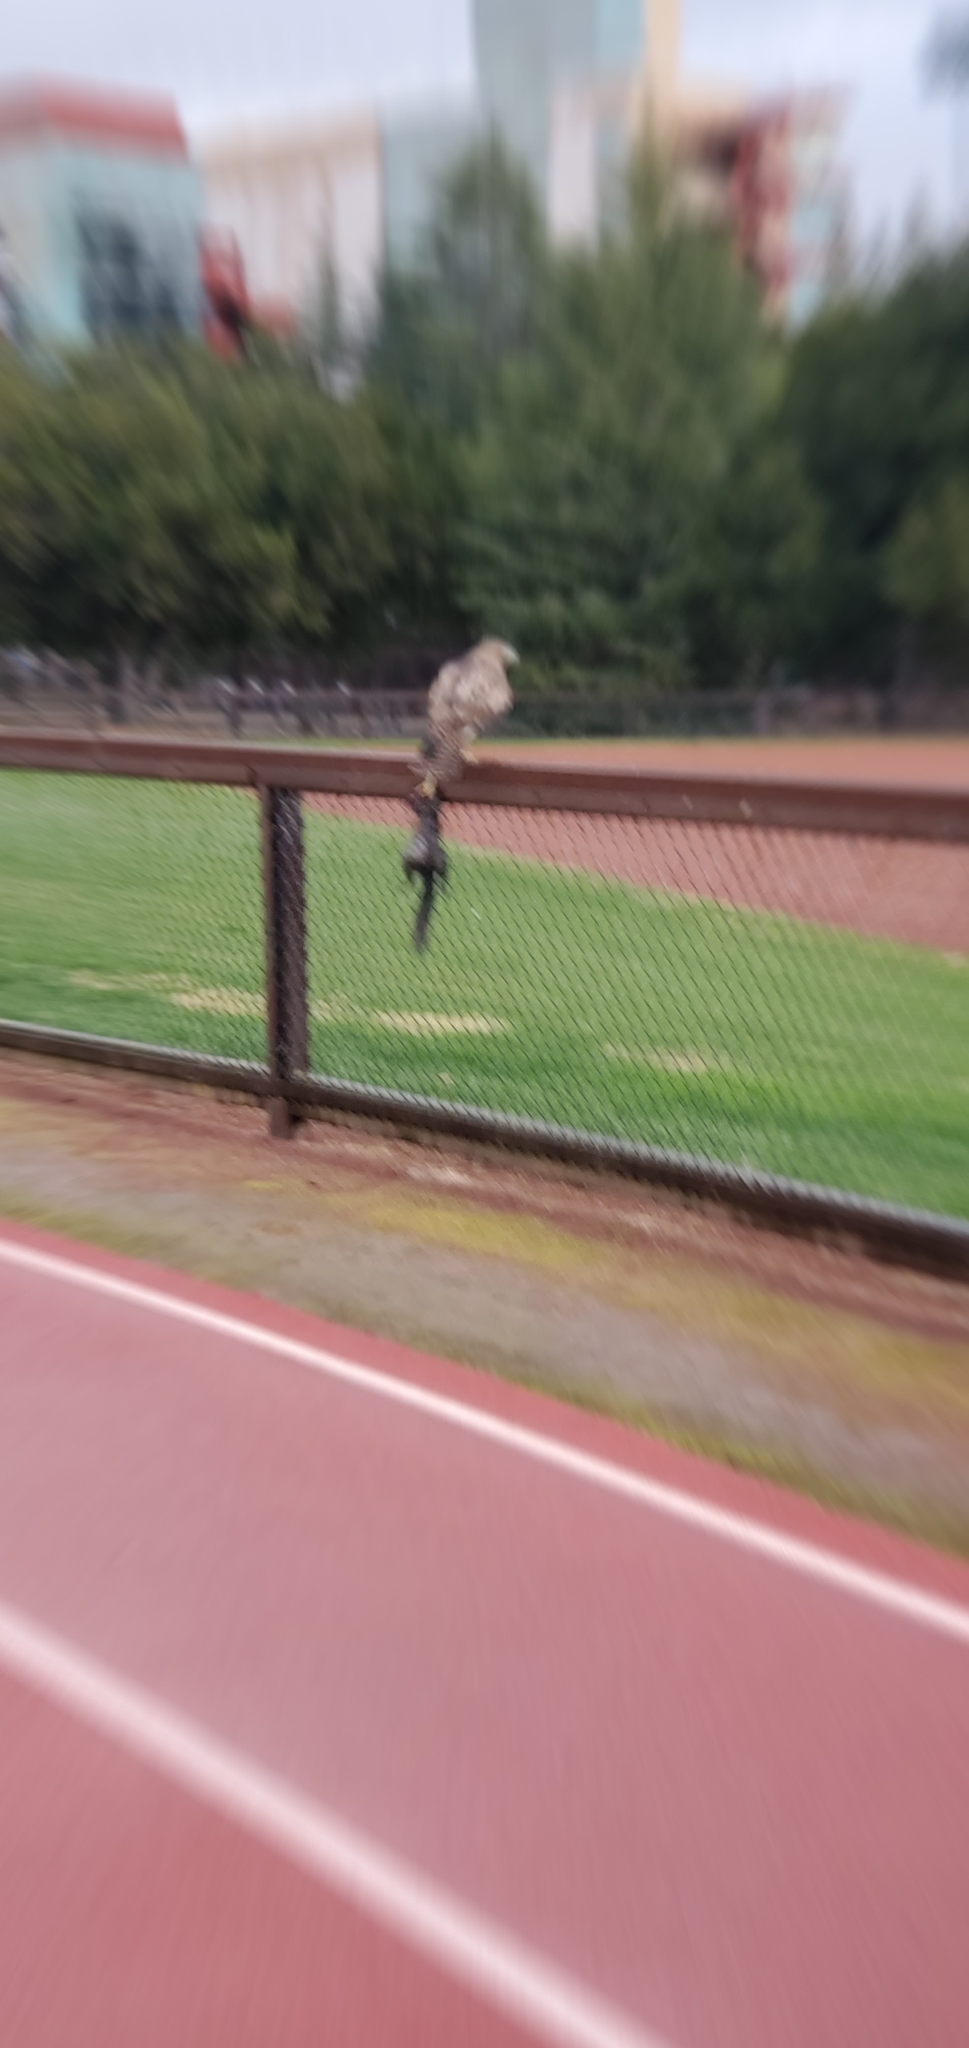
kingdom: Animalia
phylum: Chordata
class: Aves
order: Accipitriformes
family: Accipitridae
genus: Buteo
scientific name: Buteo jamaicensis
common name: Red-tailed hawk
